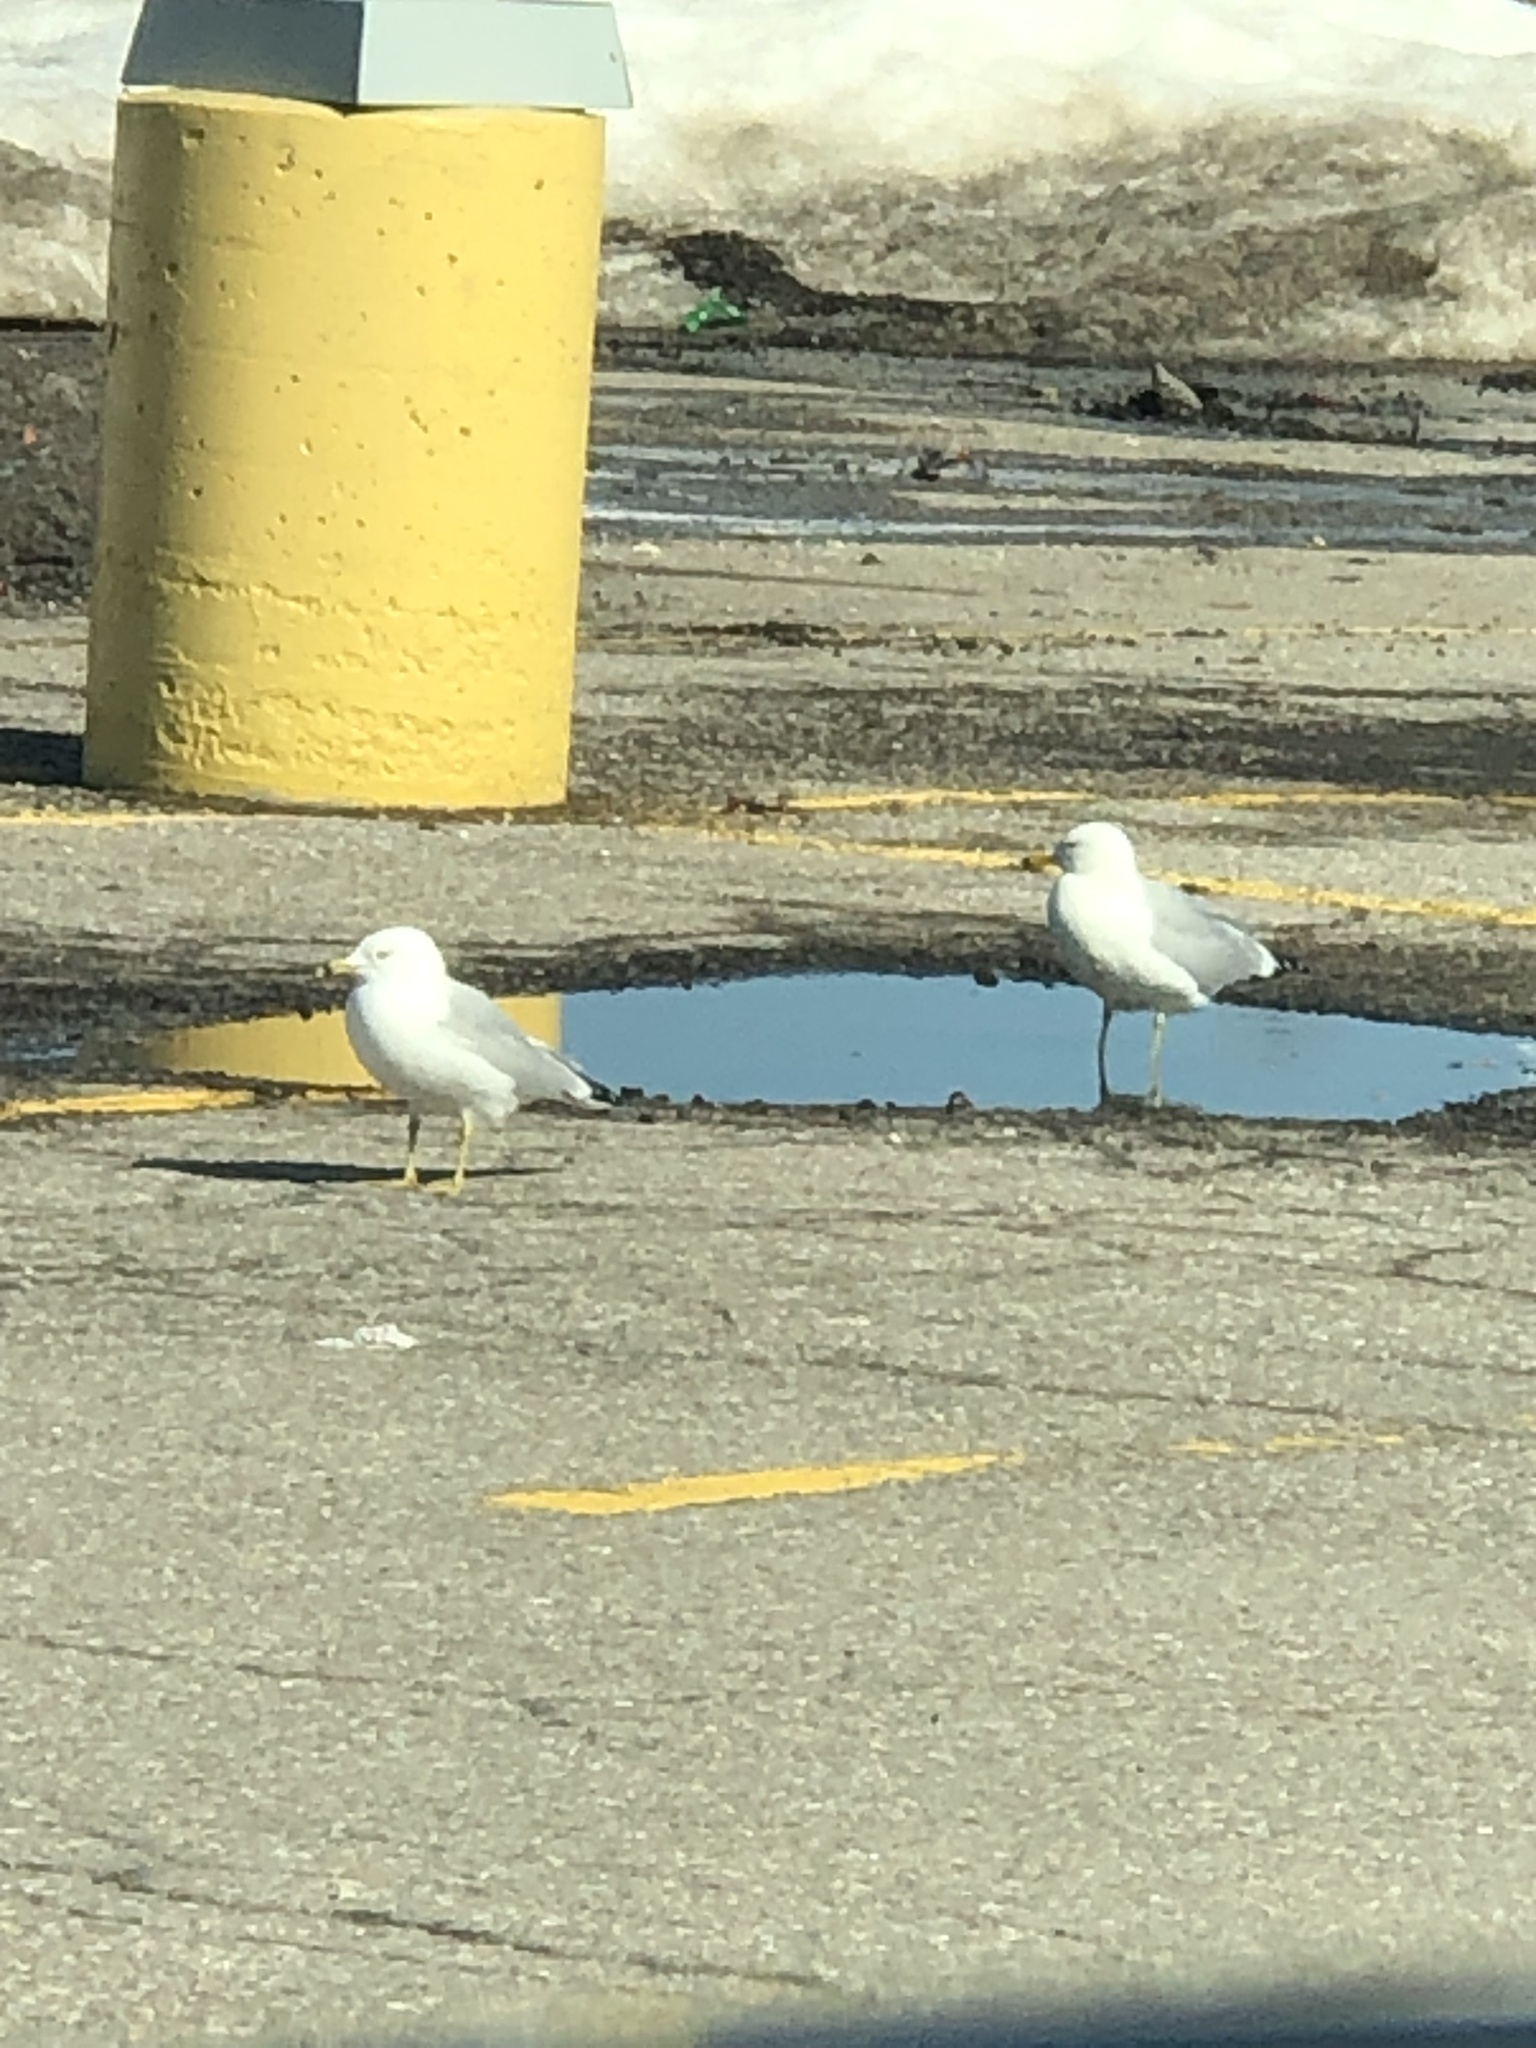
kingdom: Animalia
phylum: Chordata
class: Aves
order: Charadriiformes
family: Laridae
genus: Larus
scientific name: Larus delawarensis
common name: Ring-billed gull
